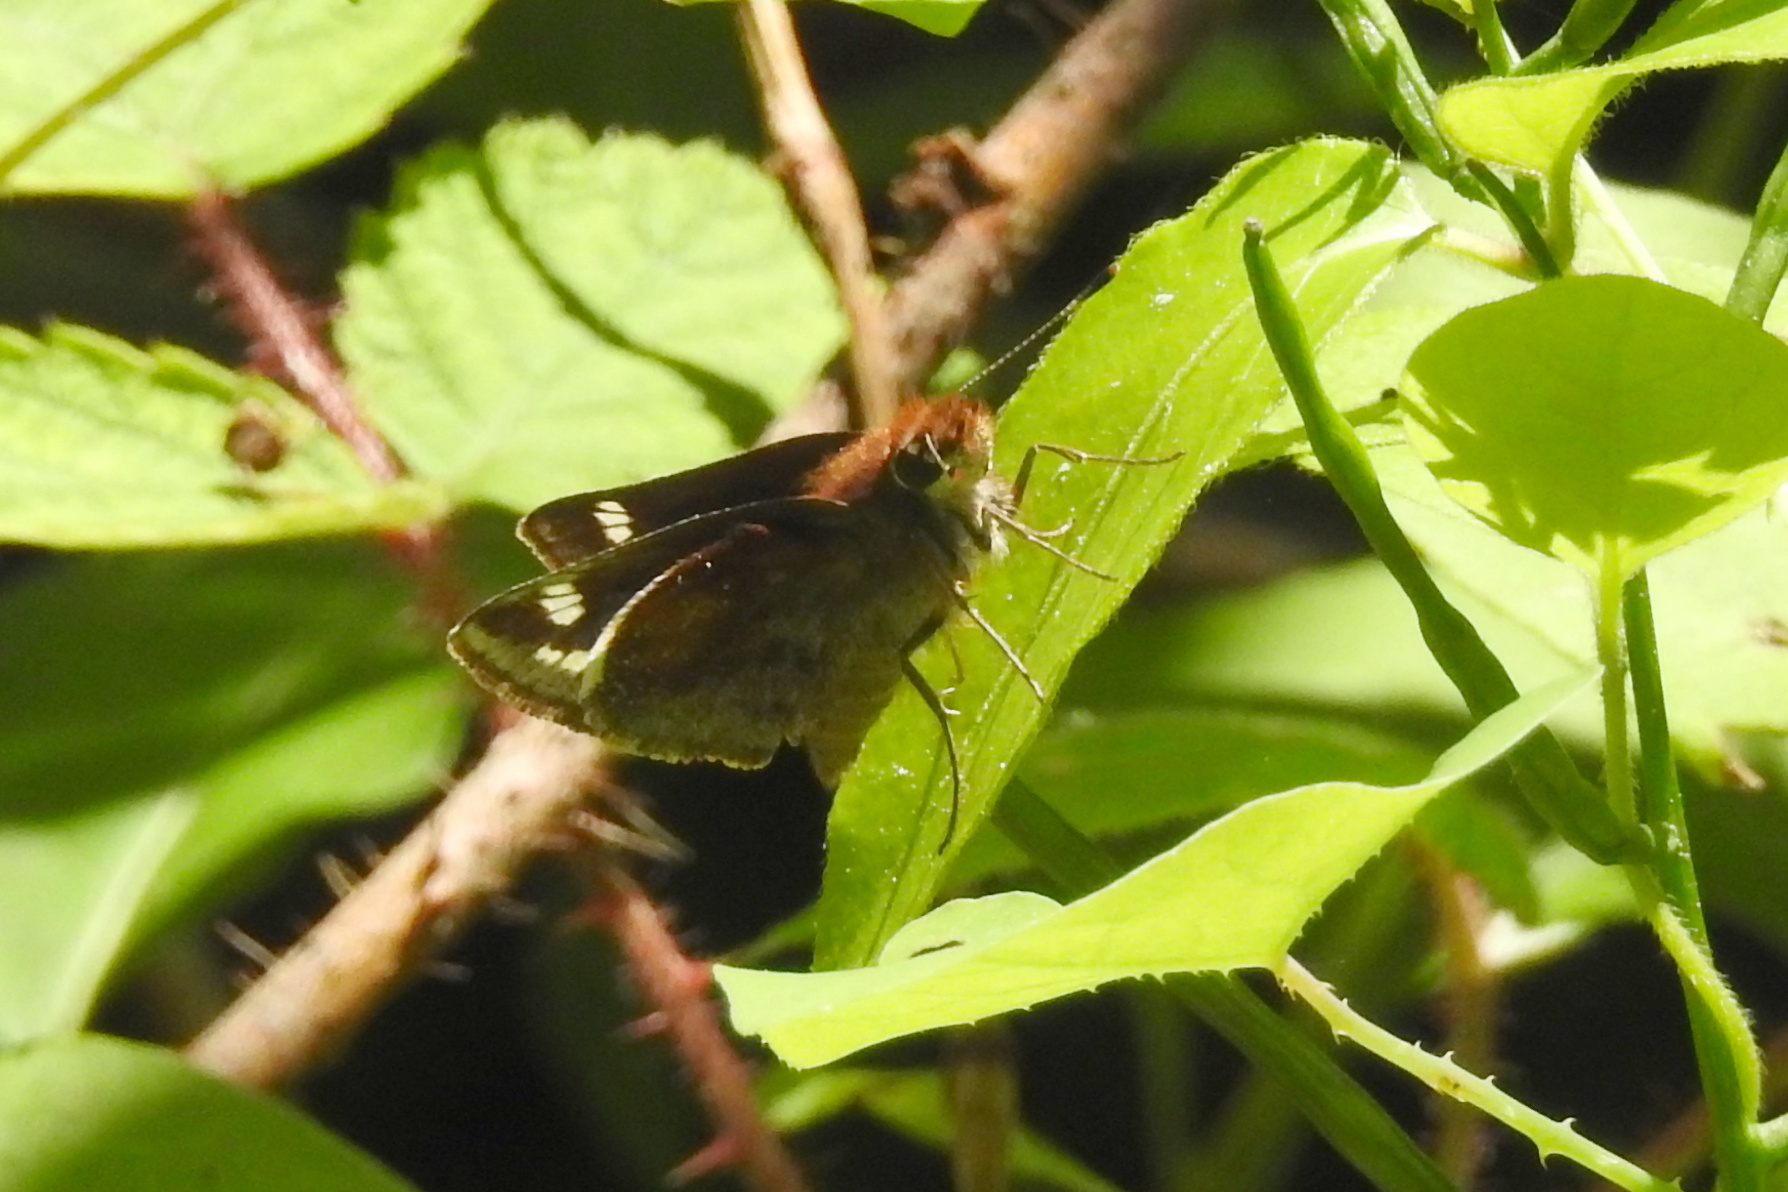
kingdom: Animalia
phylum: Arthropoda
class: Insecta
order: Lepidoptera
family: Hesperiidae
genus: Lon
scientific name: Lon zabulon
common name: Zabulon skipper
